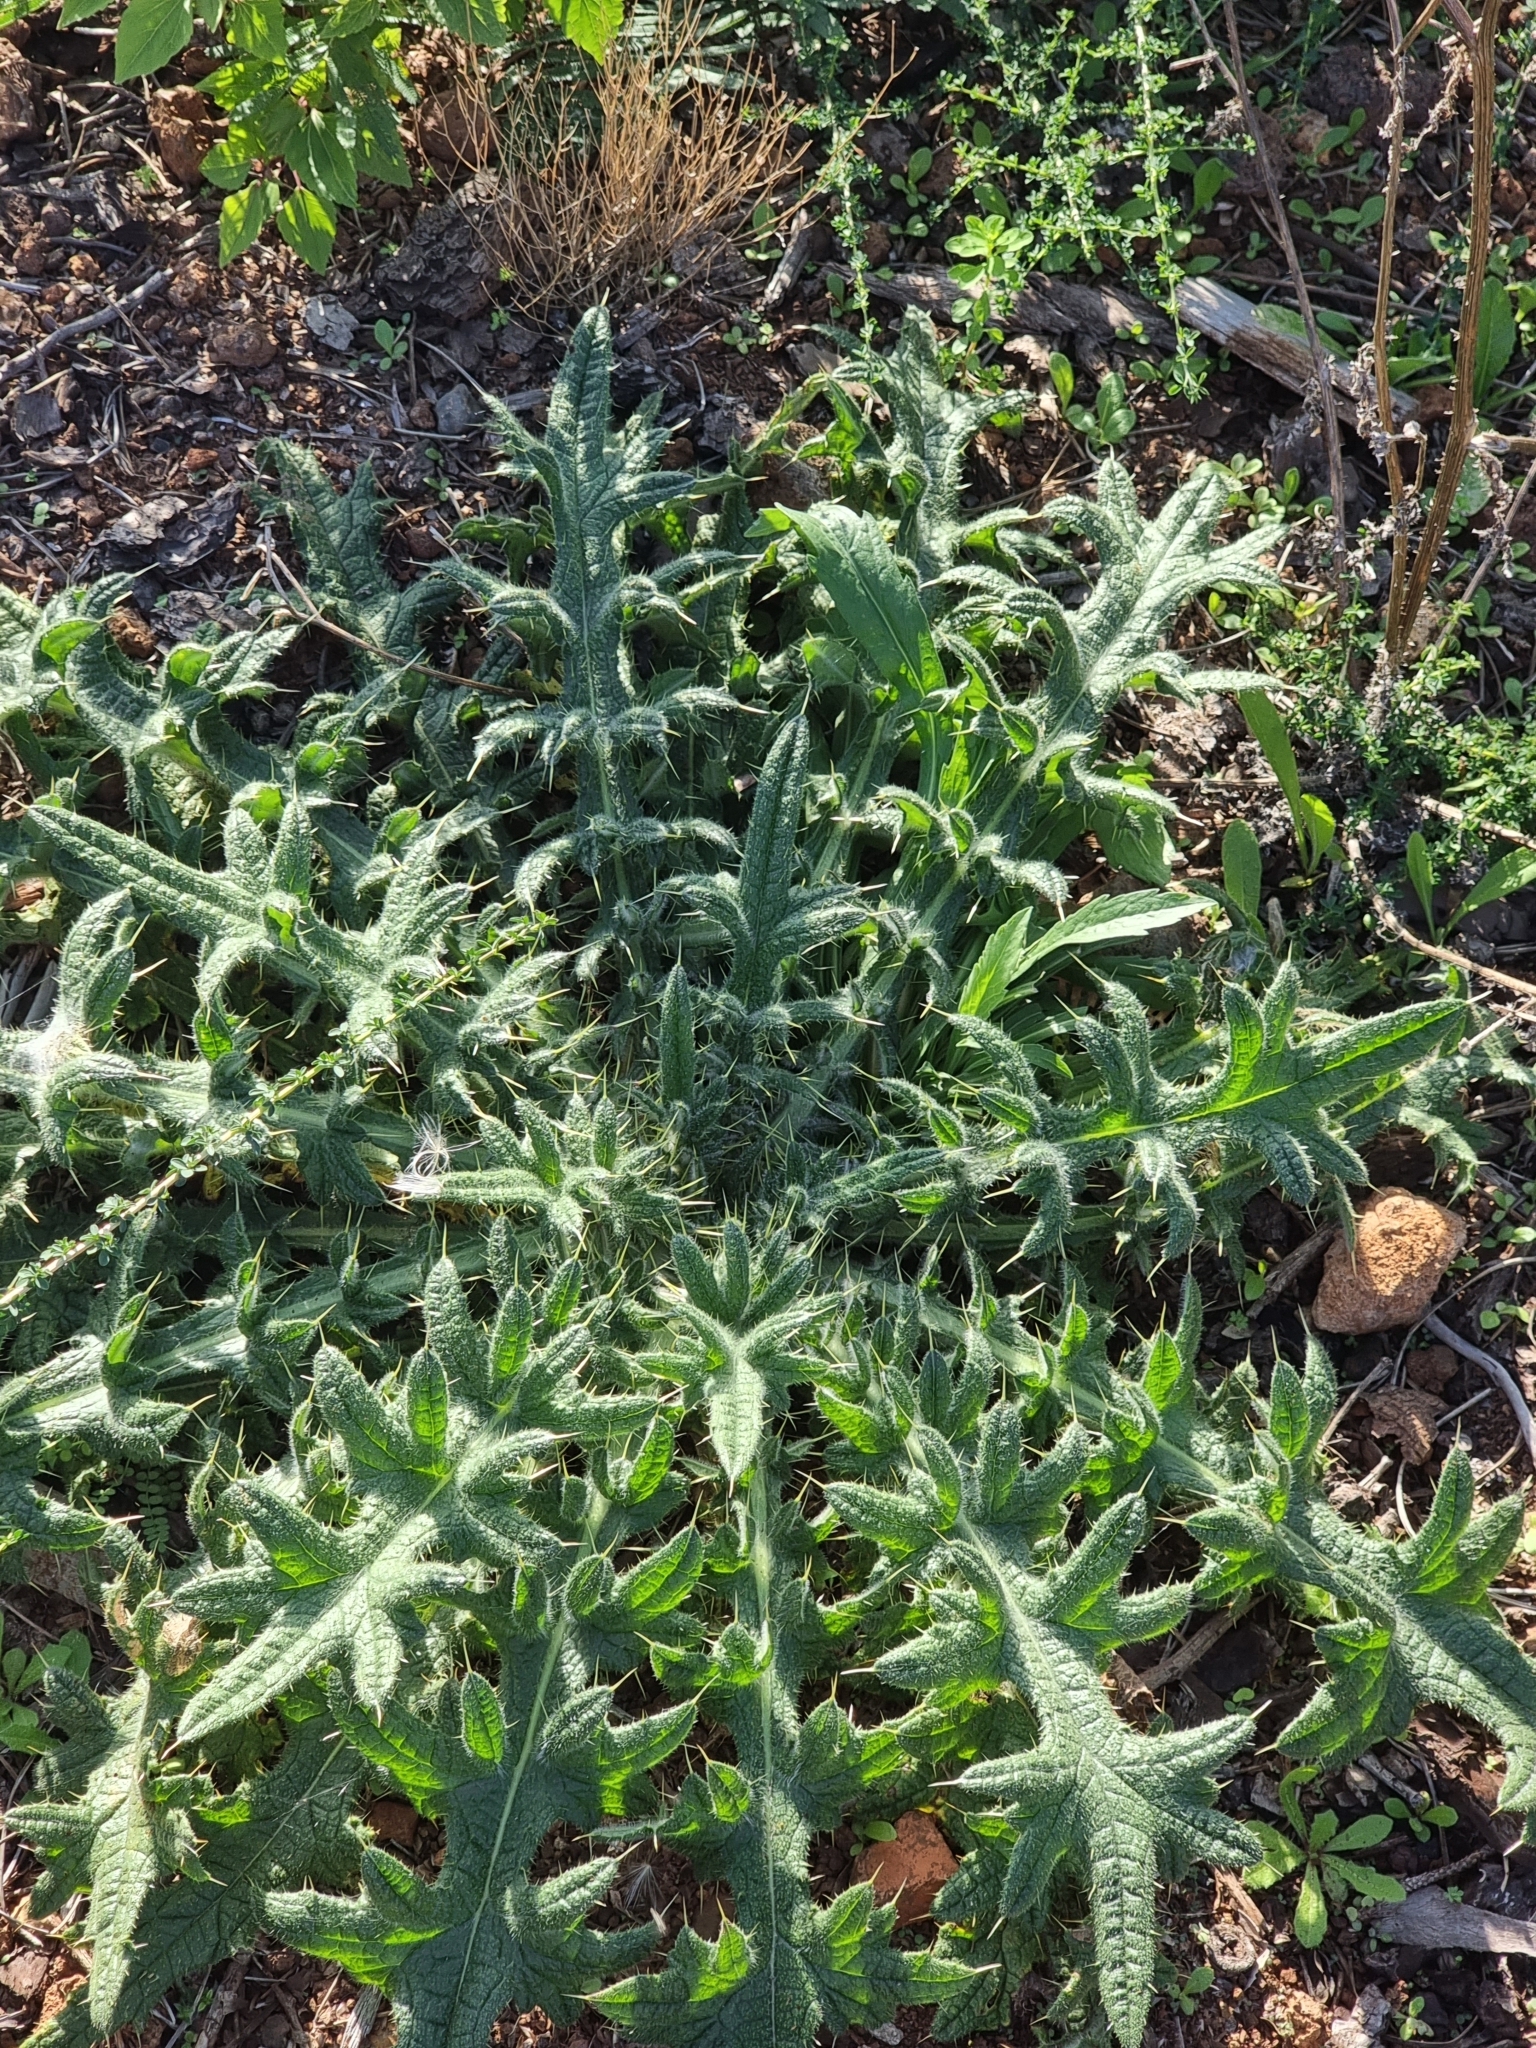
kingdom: Plantae
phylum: Tracheophyta
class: Magnoliopsida
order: Asterales
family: Asteraceae
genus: Cirsium
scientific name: Cirsium vulgare
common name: Bull thistle
